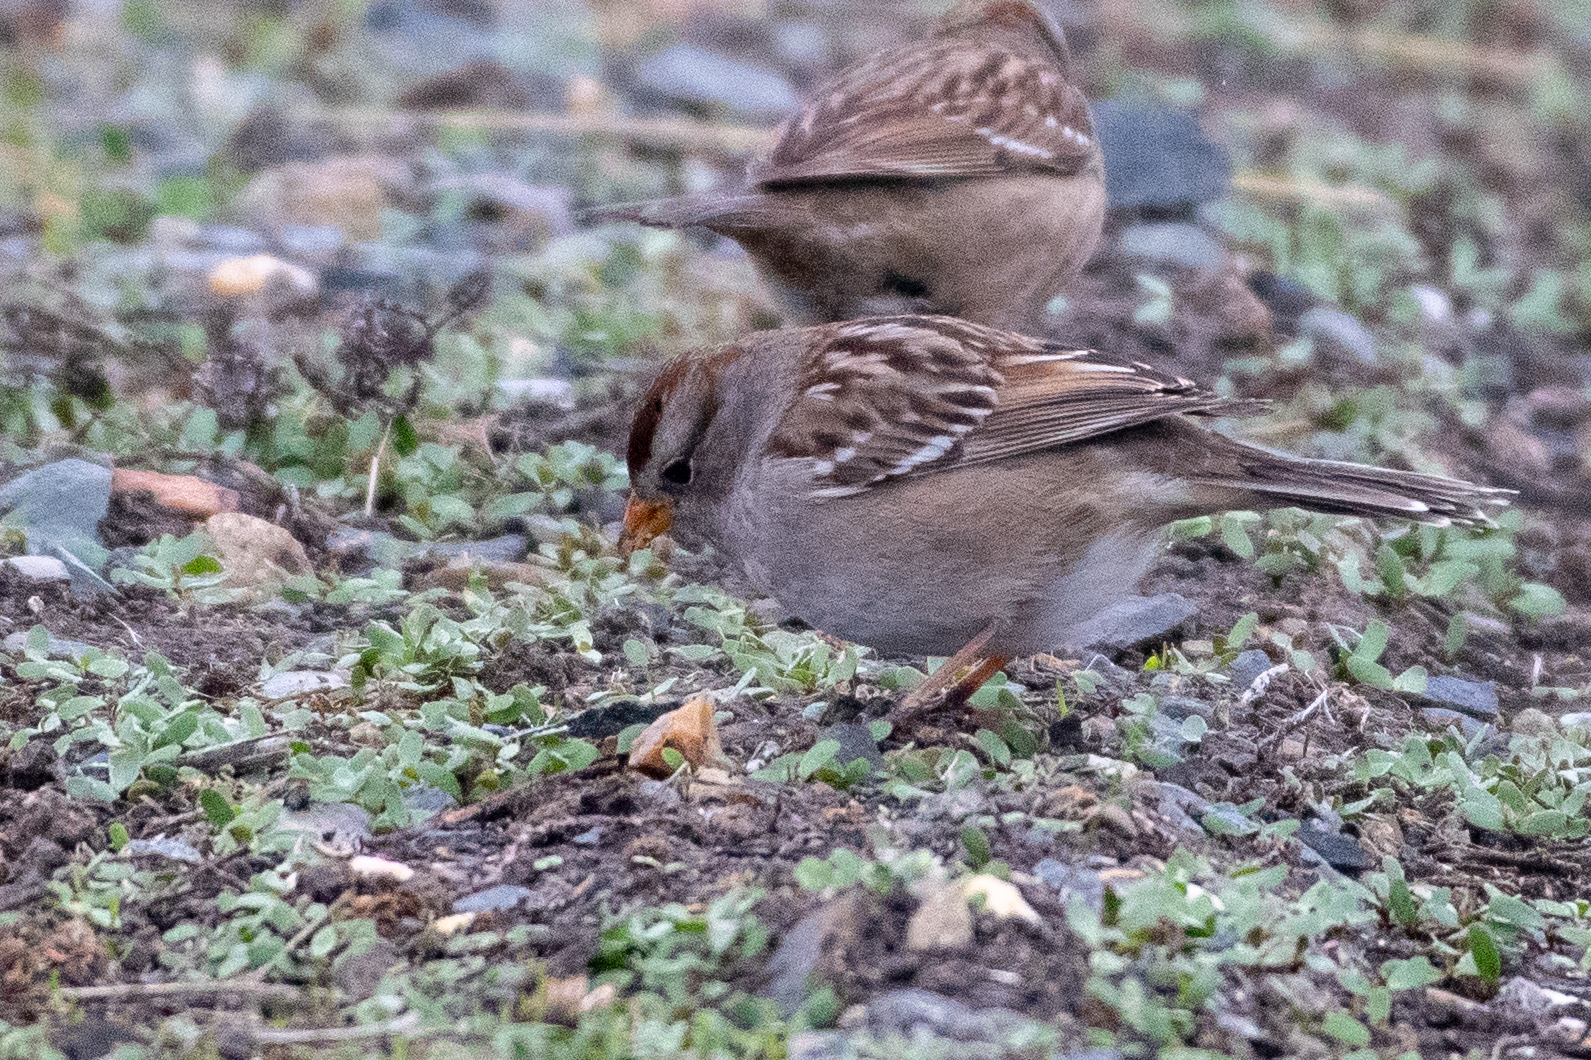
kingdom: Animalia
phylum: Chordata
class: Aves
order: Passeriformes
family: Passerellidae
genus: Zonotrichia
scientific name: Zonotrichia leucophrys
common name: White-crowned sparrow
